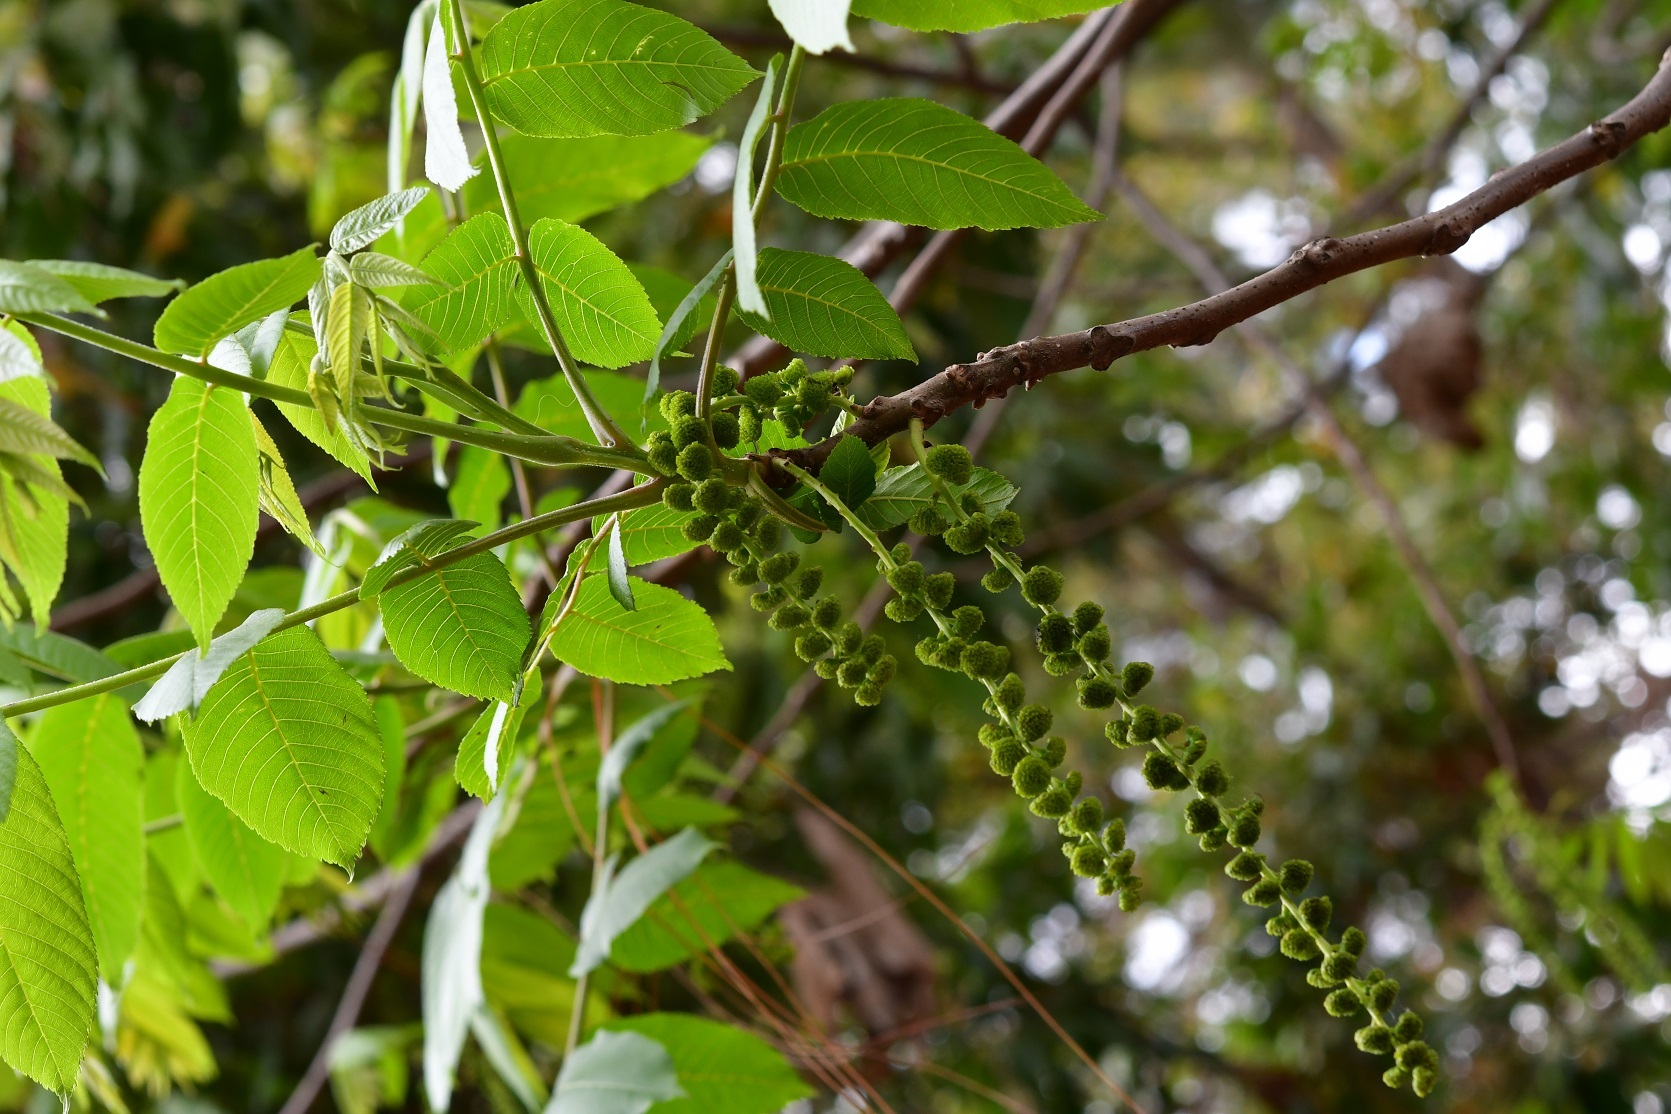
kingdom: Plantae
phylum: Tracheophyta
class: Magnoliopsida
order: Fagales
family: Juglandaceae
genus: Juglans
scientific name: Juglans olanchana
